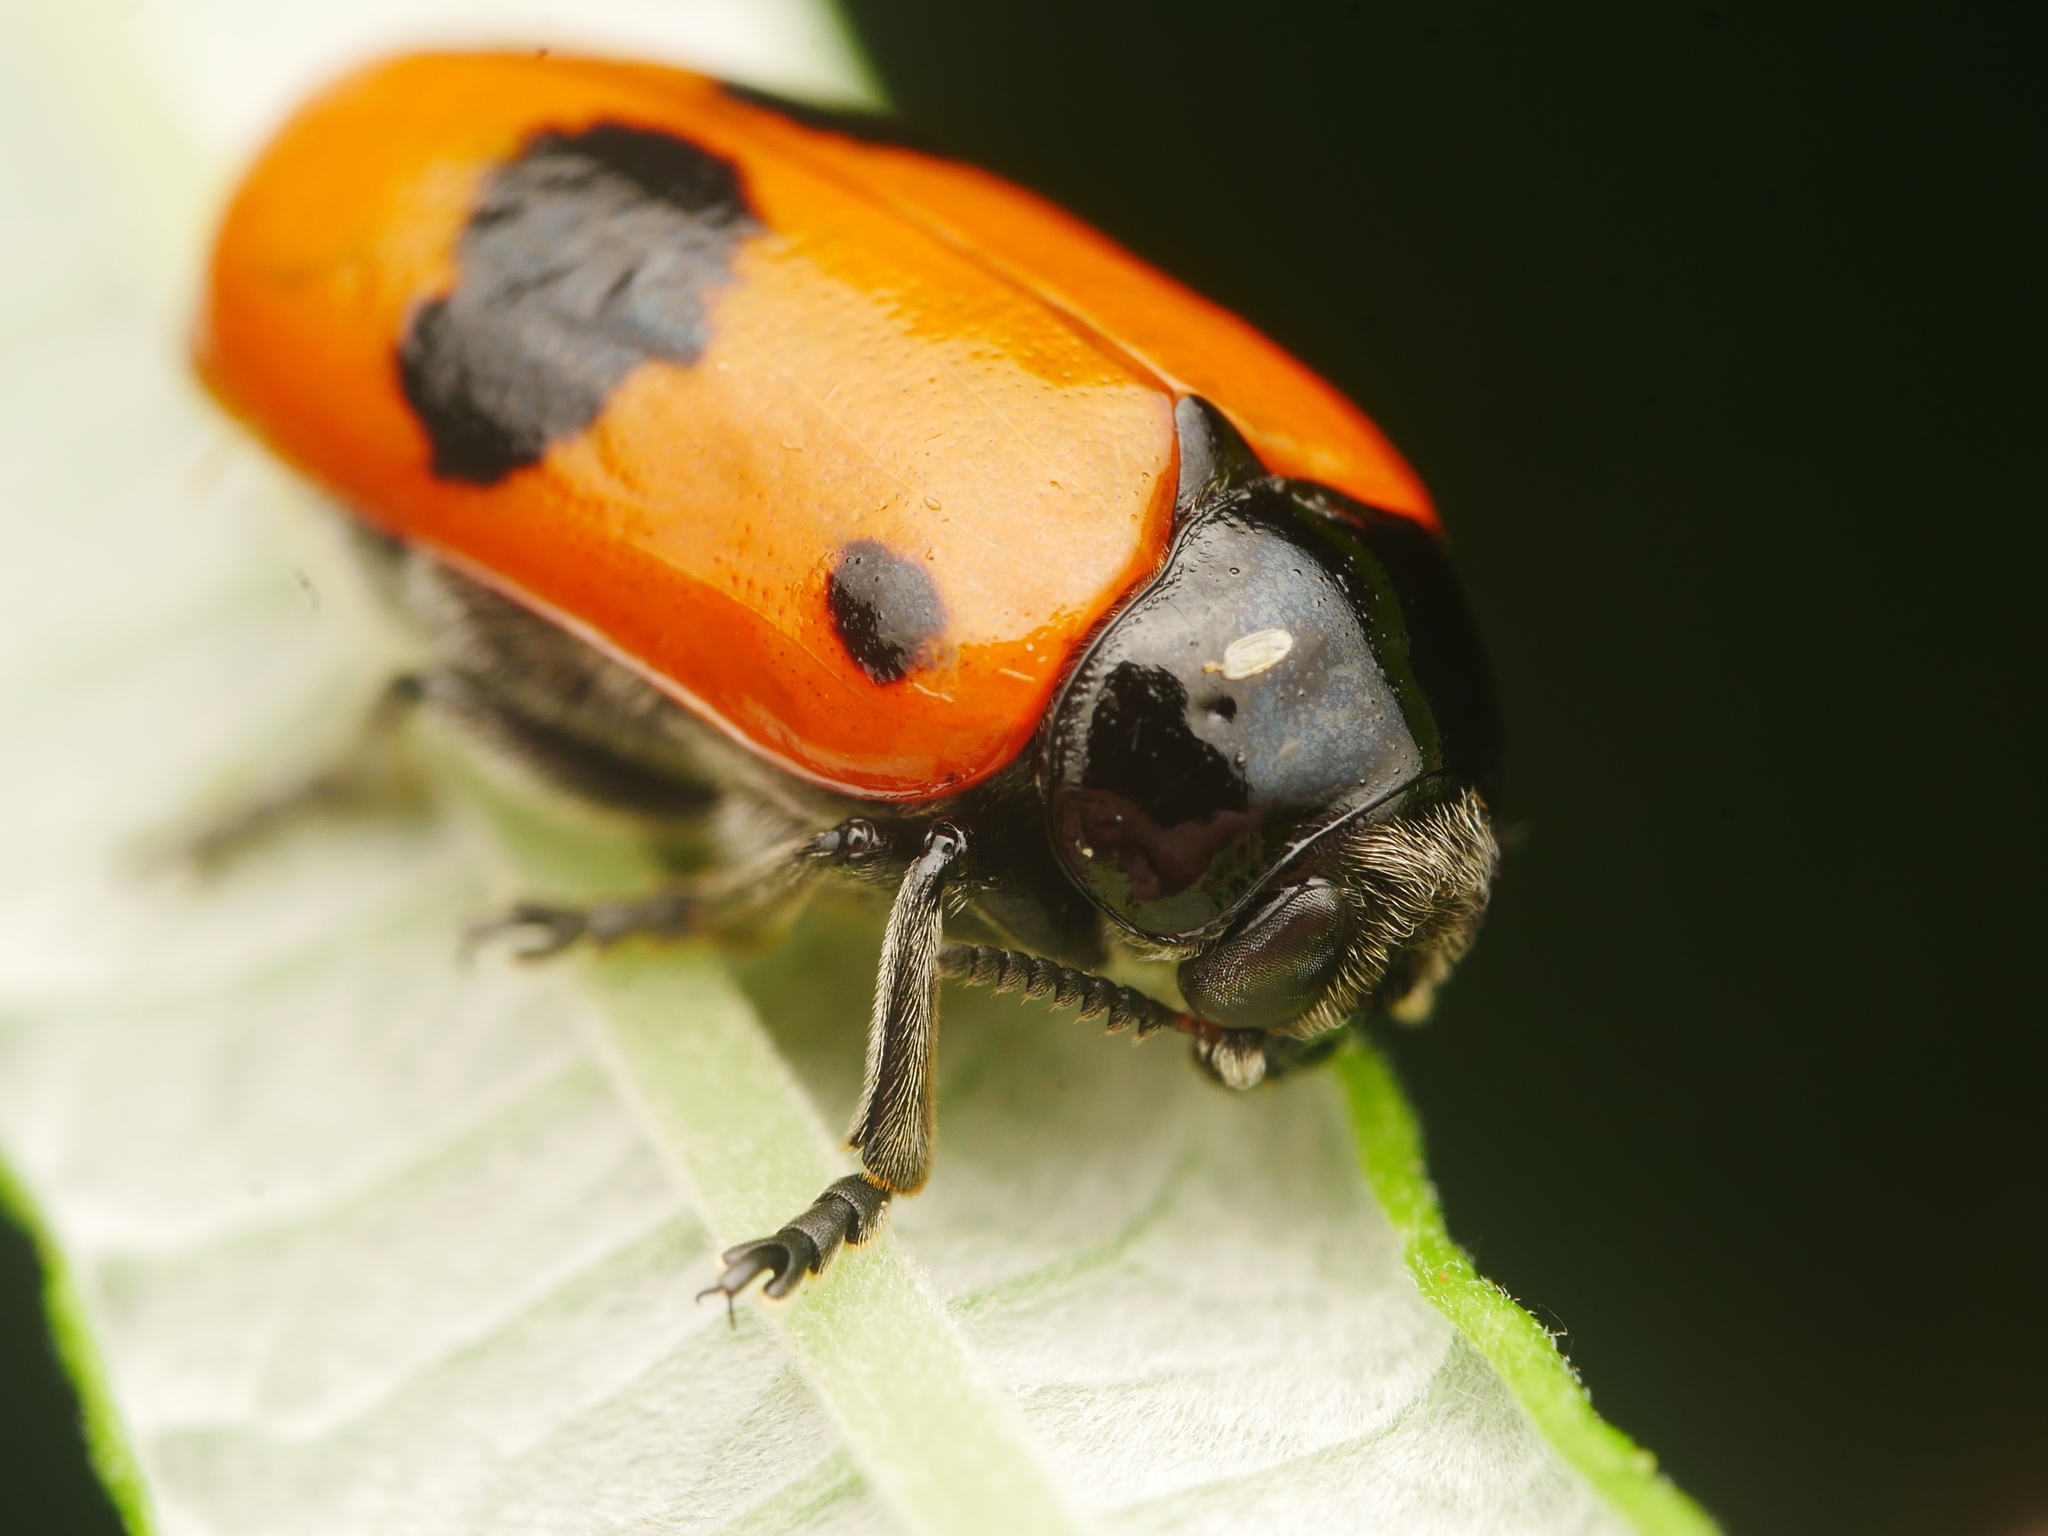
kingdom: Animalia
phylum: Arthropoda
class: Insecta
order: Coleoptera
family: Chrysomelidae
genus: Clytra
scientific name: Clytra laeviuscula
